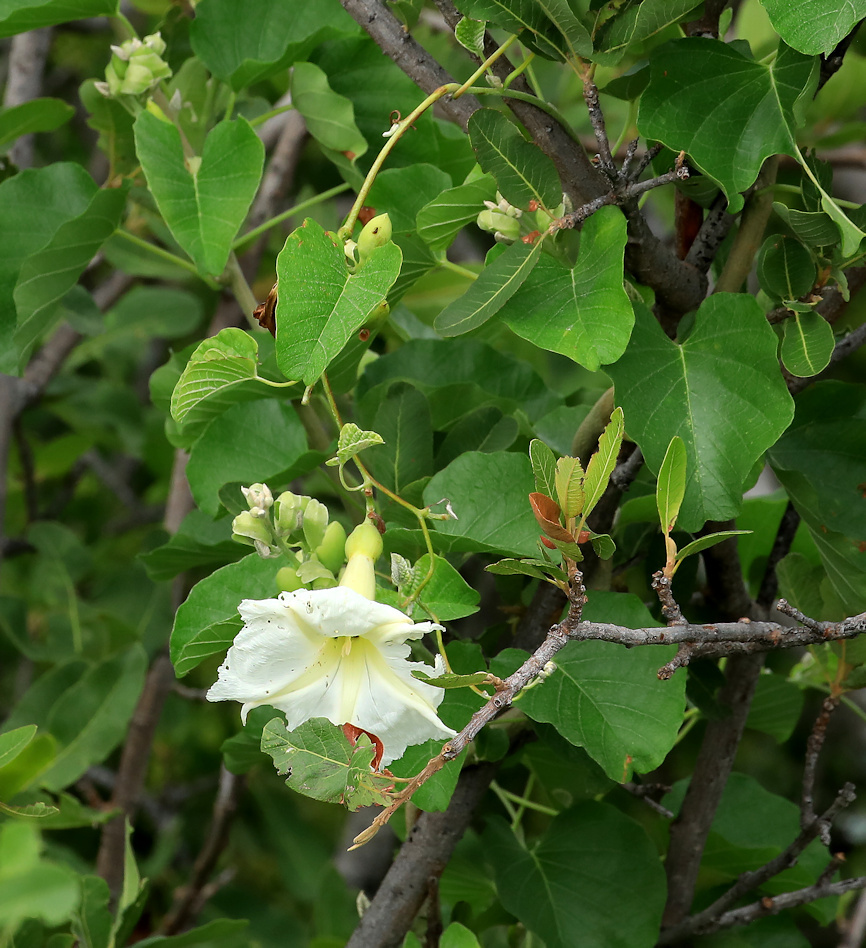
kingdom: Plantae
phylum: Tracheophyta
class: Magnoliopsida
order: Solanales
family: Convolvulaceae
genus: Ipomoea
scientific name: Ipomoea albivenia
